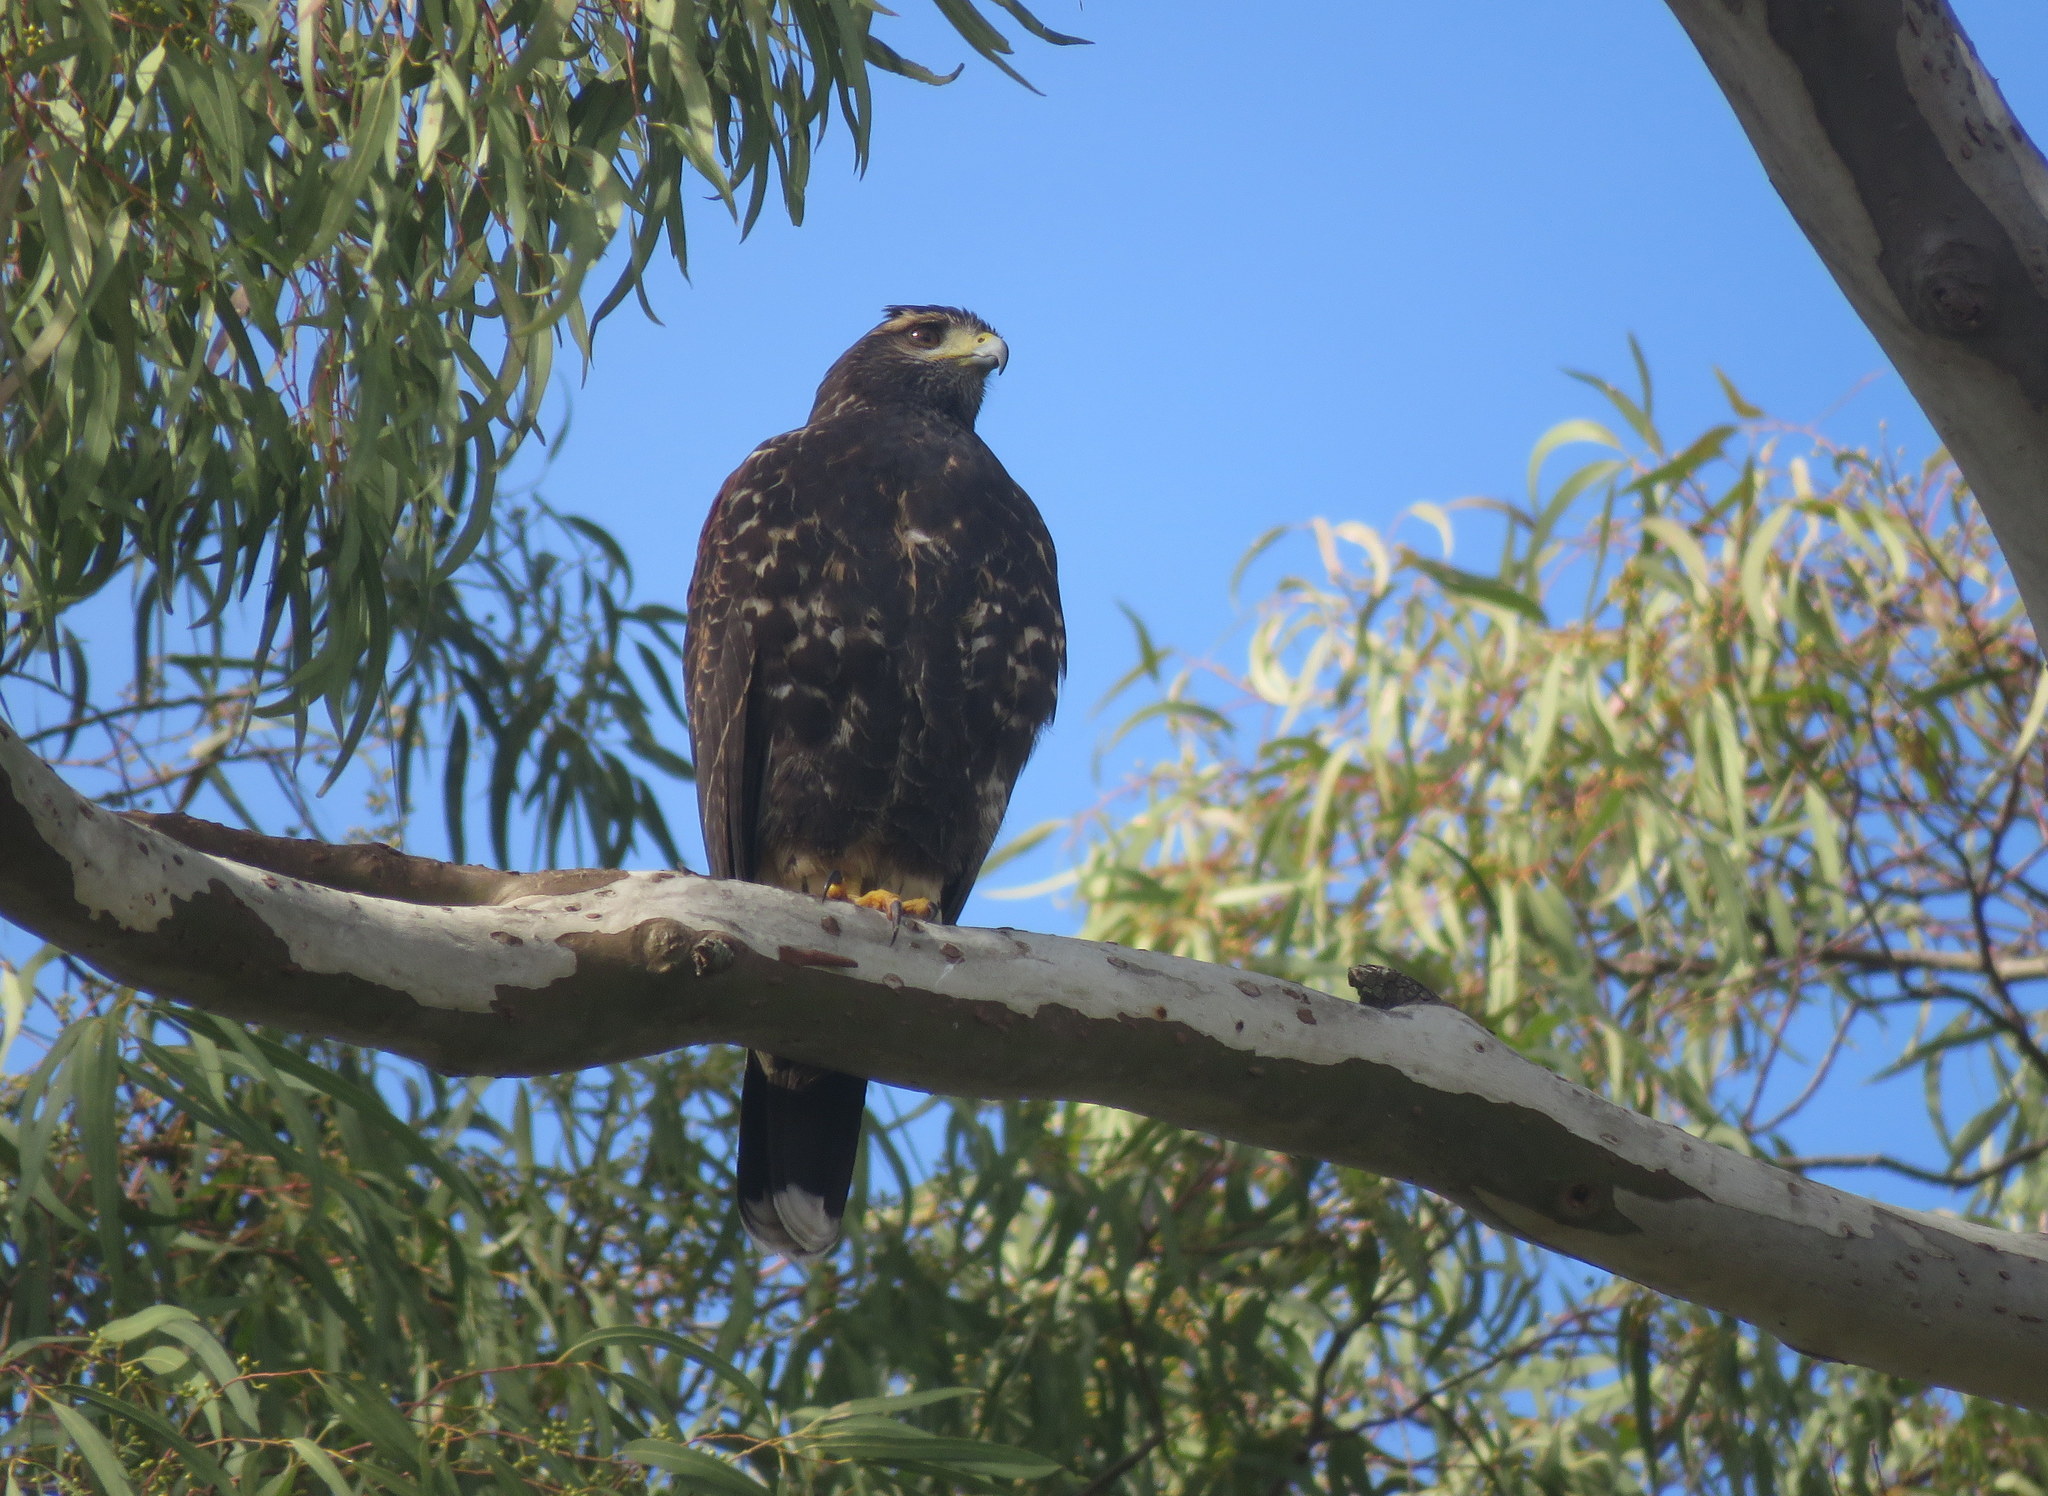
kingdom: Animalia
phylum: Chordata
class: Aves
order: Accipitriformes
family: Accipitridae
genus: Parabuteo
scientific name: Parabuteo unicinctus
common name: Harris's hawk
